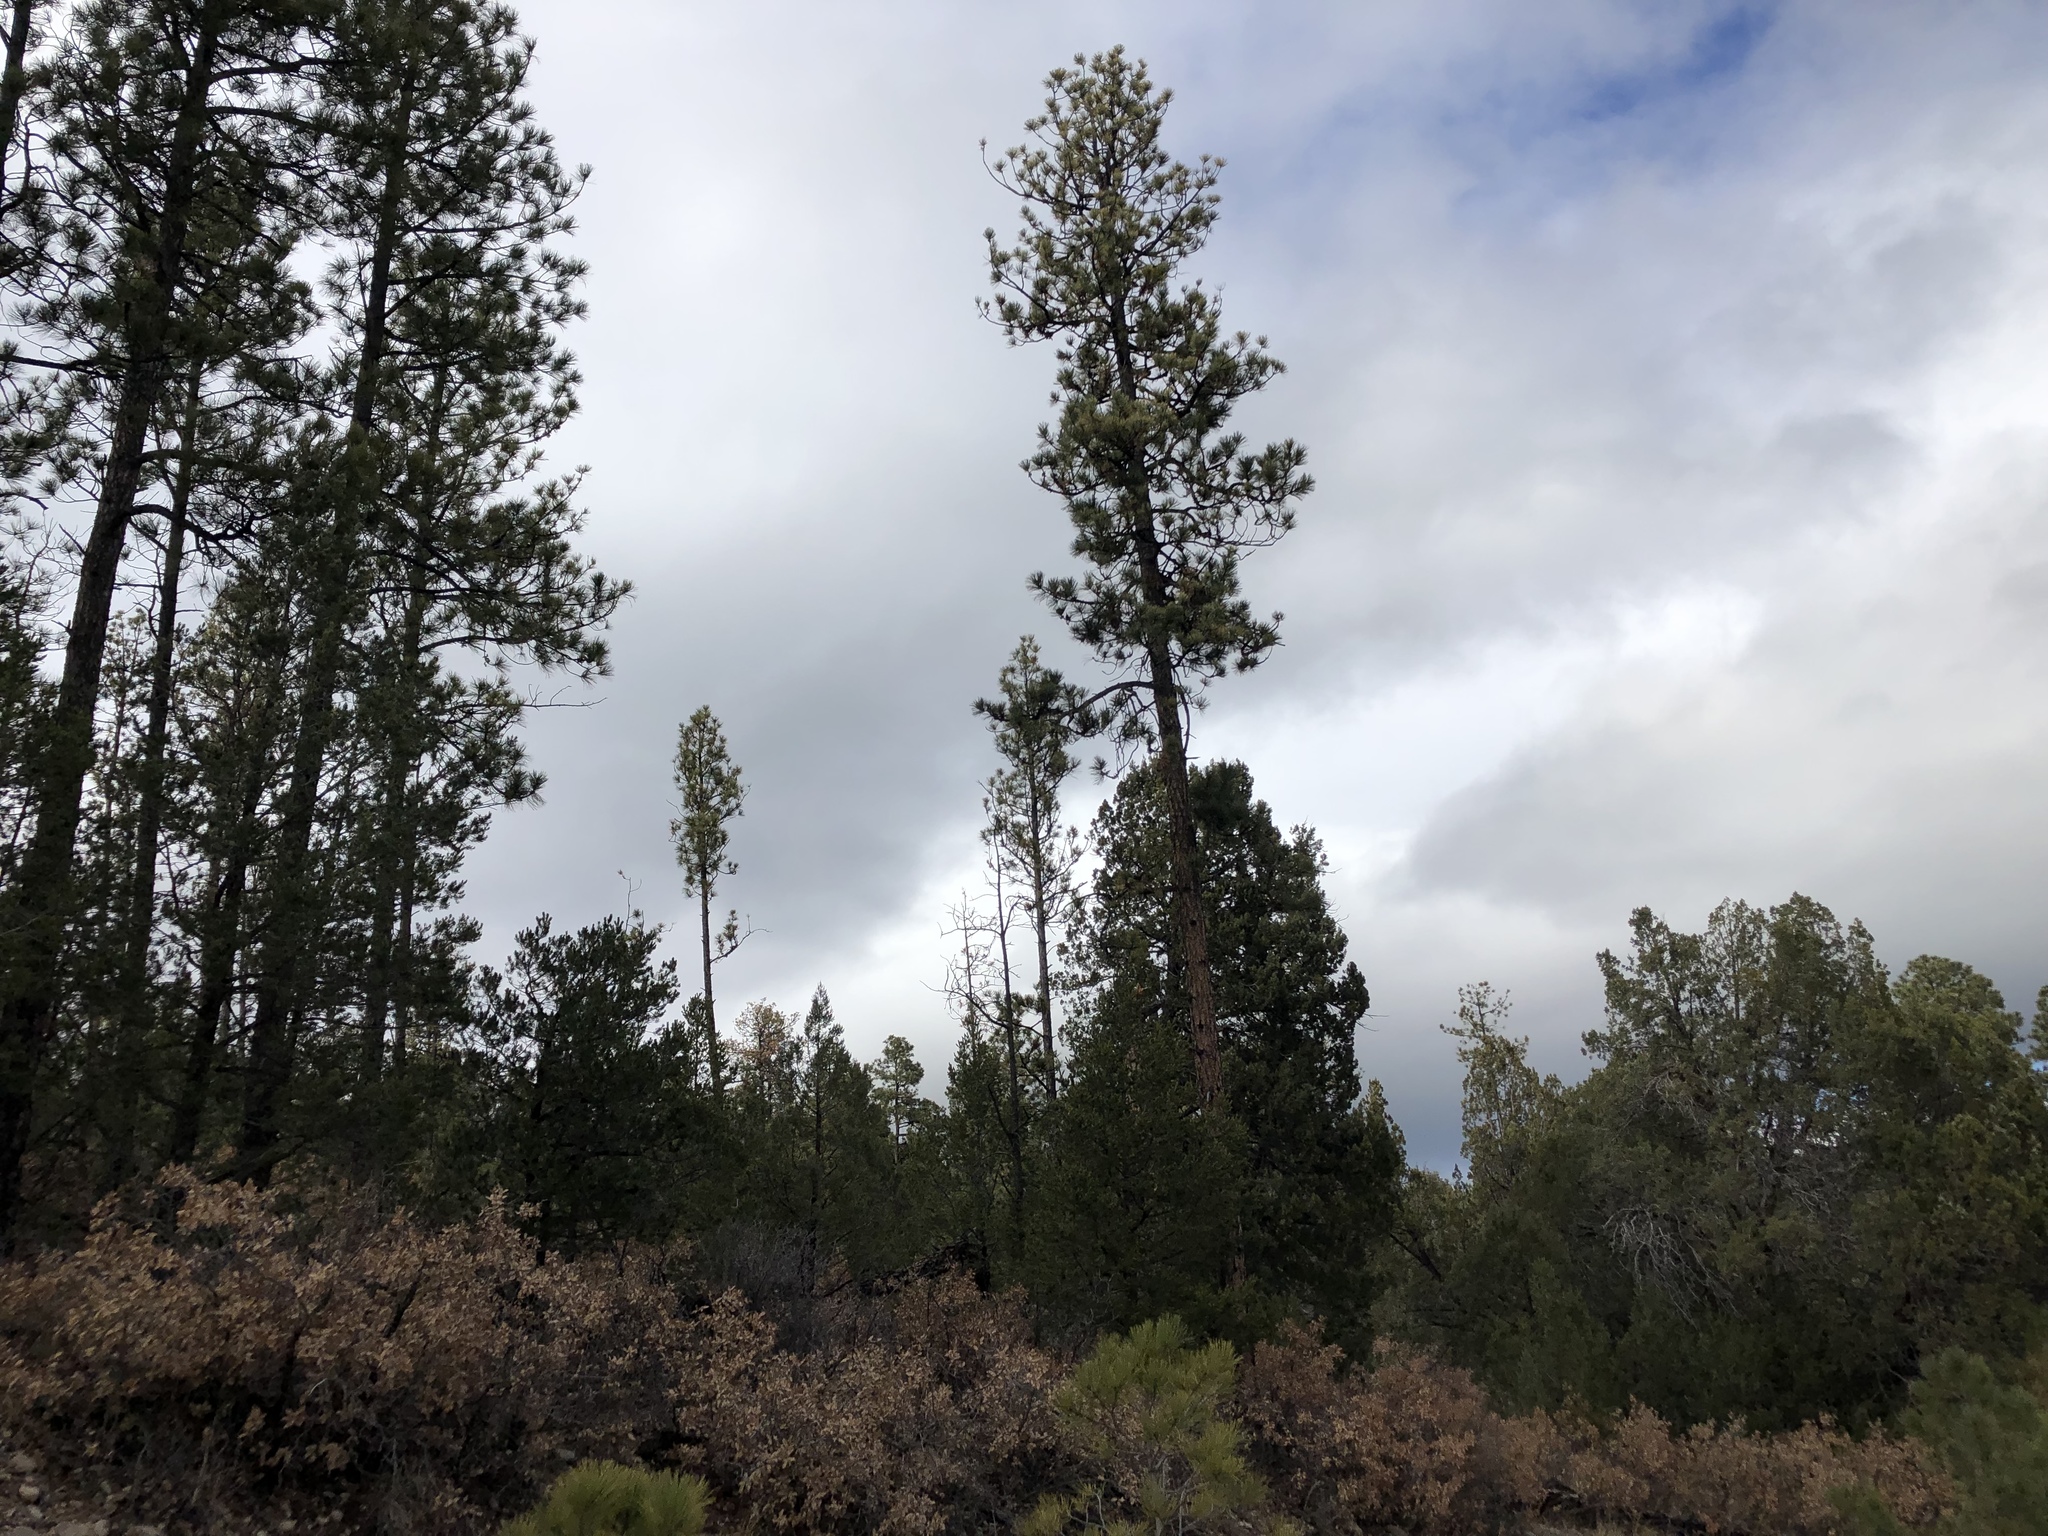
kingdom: Plantae
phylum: Tracheophyta
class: Pinopsida
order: Pinales
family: Pinaceae
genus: Pinus
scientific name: Pinus ponderosa
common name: Western yellow-pine
